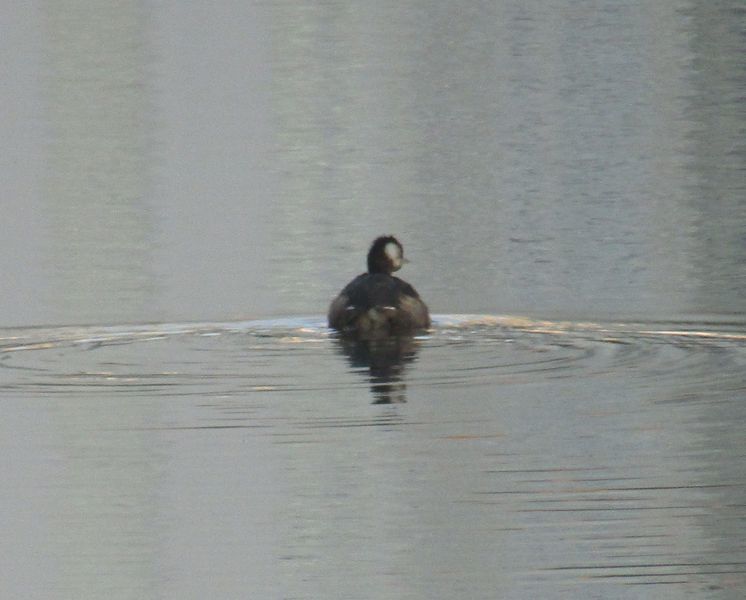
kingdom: Animalia
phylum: Chordata
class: Aves
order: Podicipediformes
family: Podicipedidae
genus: Rollandia
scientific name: Rollandia rolland
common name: White-tufted grebe
